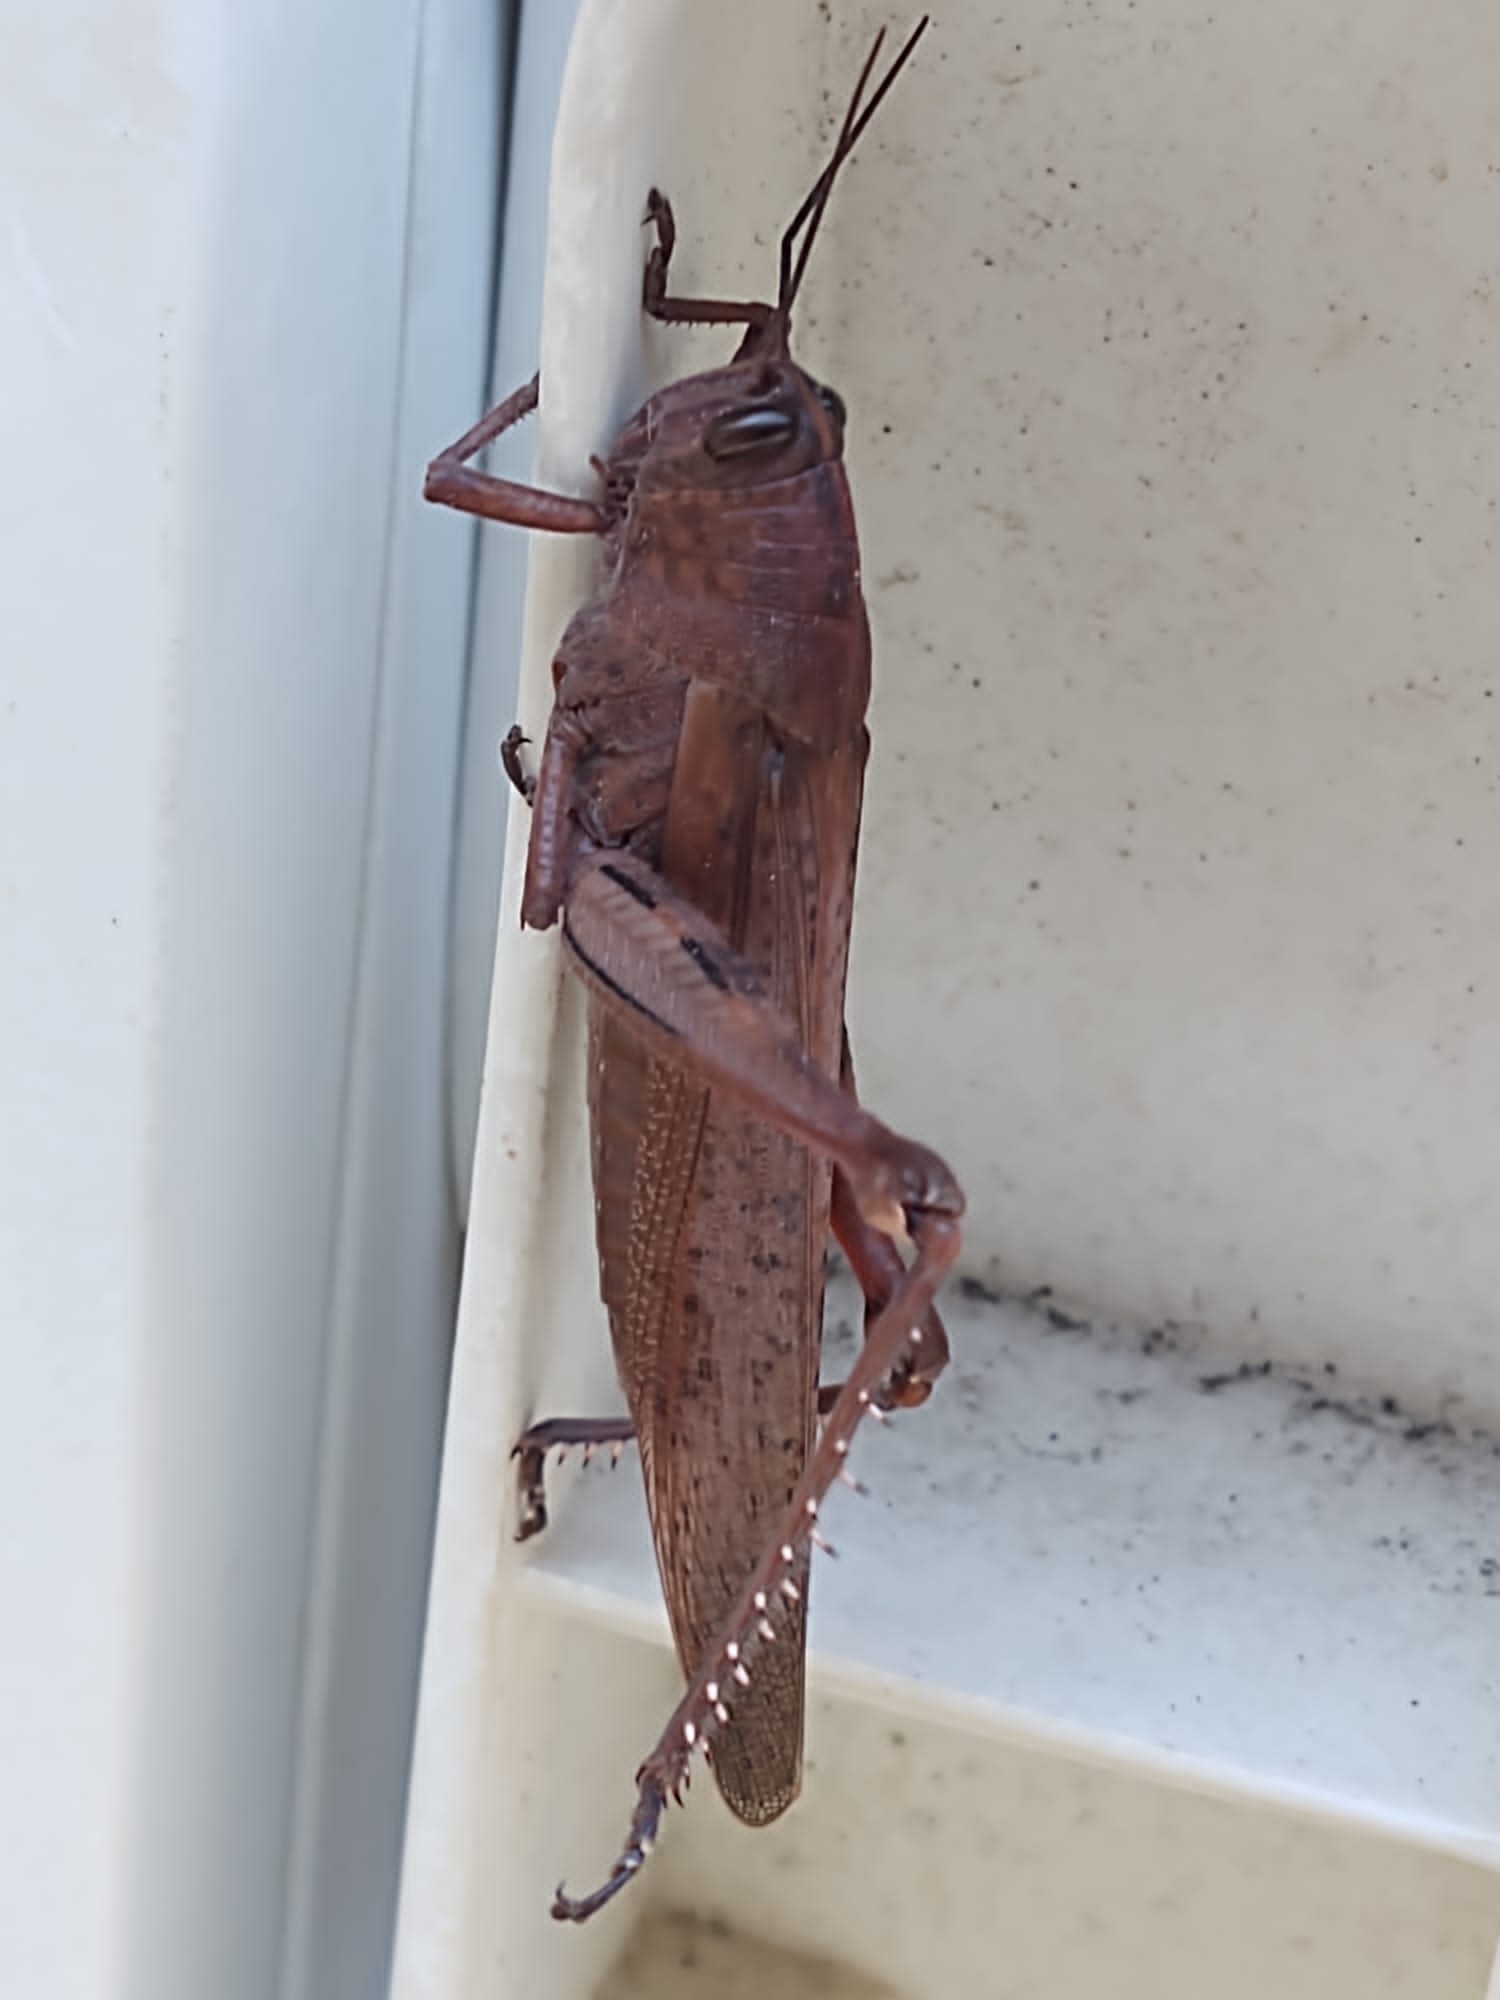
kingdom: Animalia
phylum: Arthropoda
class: Insecta
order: Orthoptera
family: Acrididae
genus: Anacridium
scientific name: Anacridium aegyptium
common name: Egyptian grasshopper
